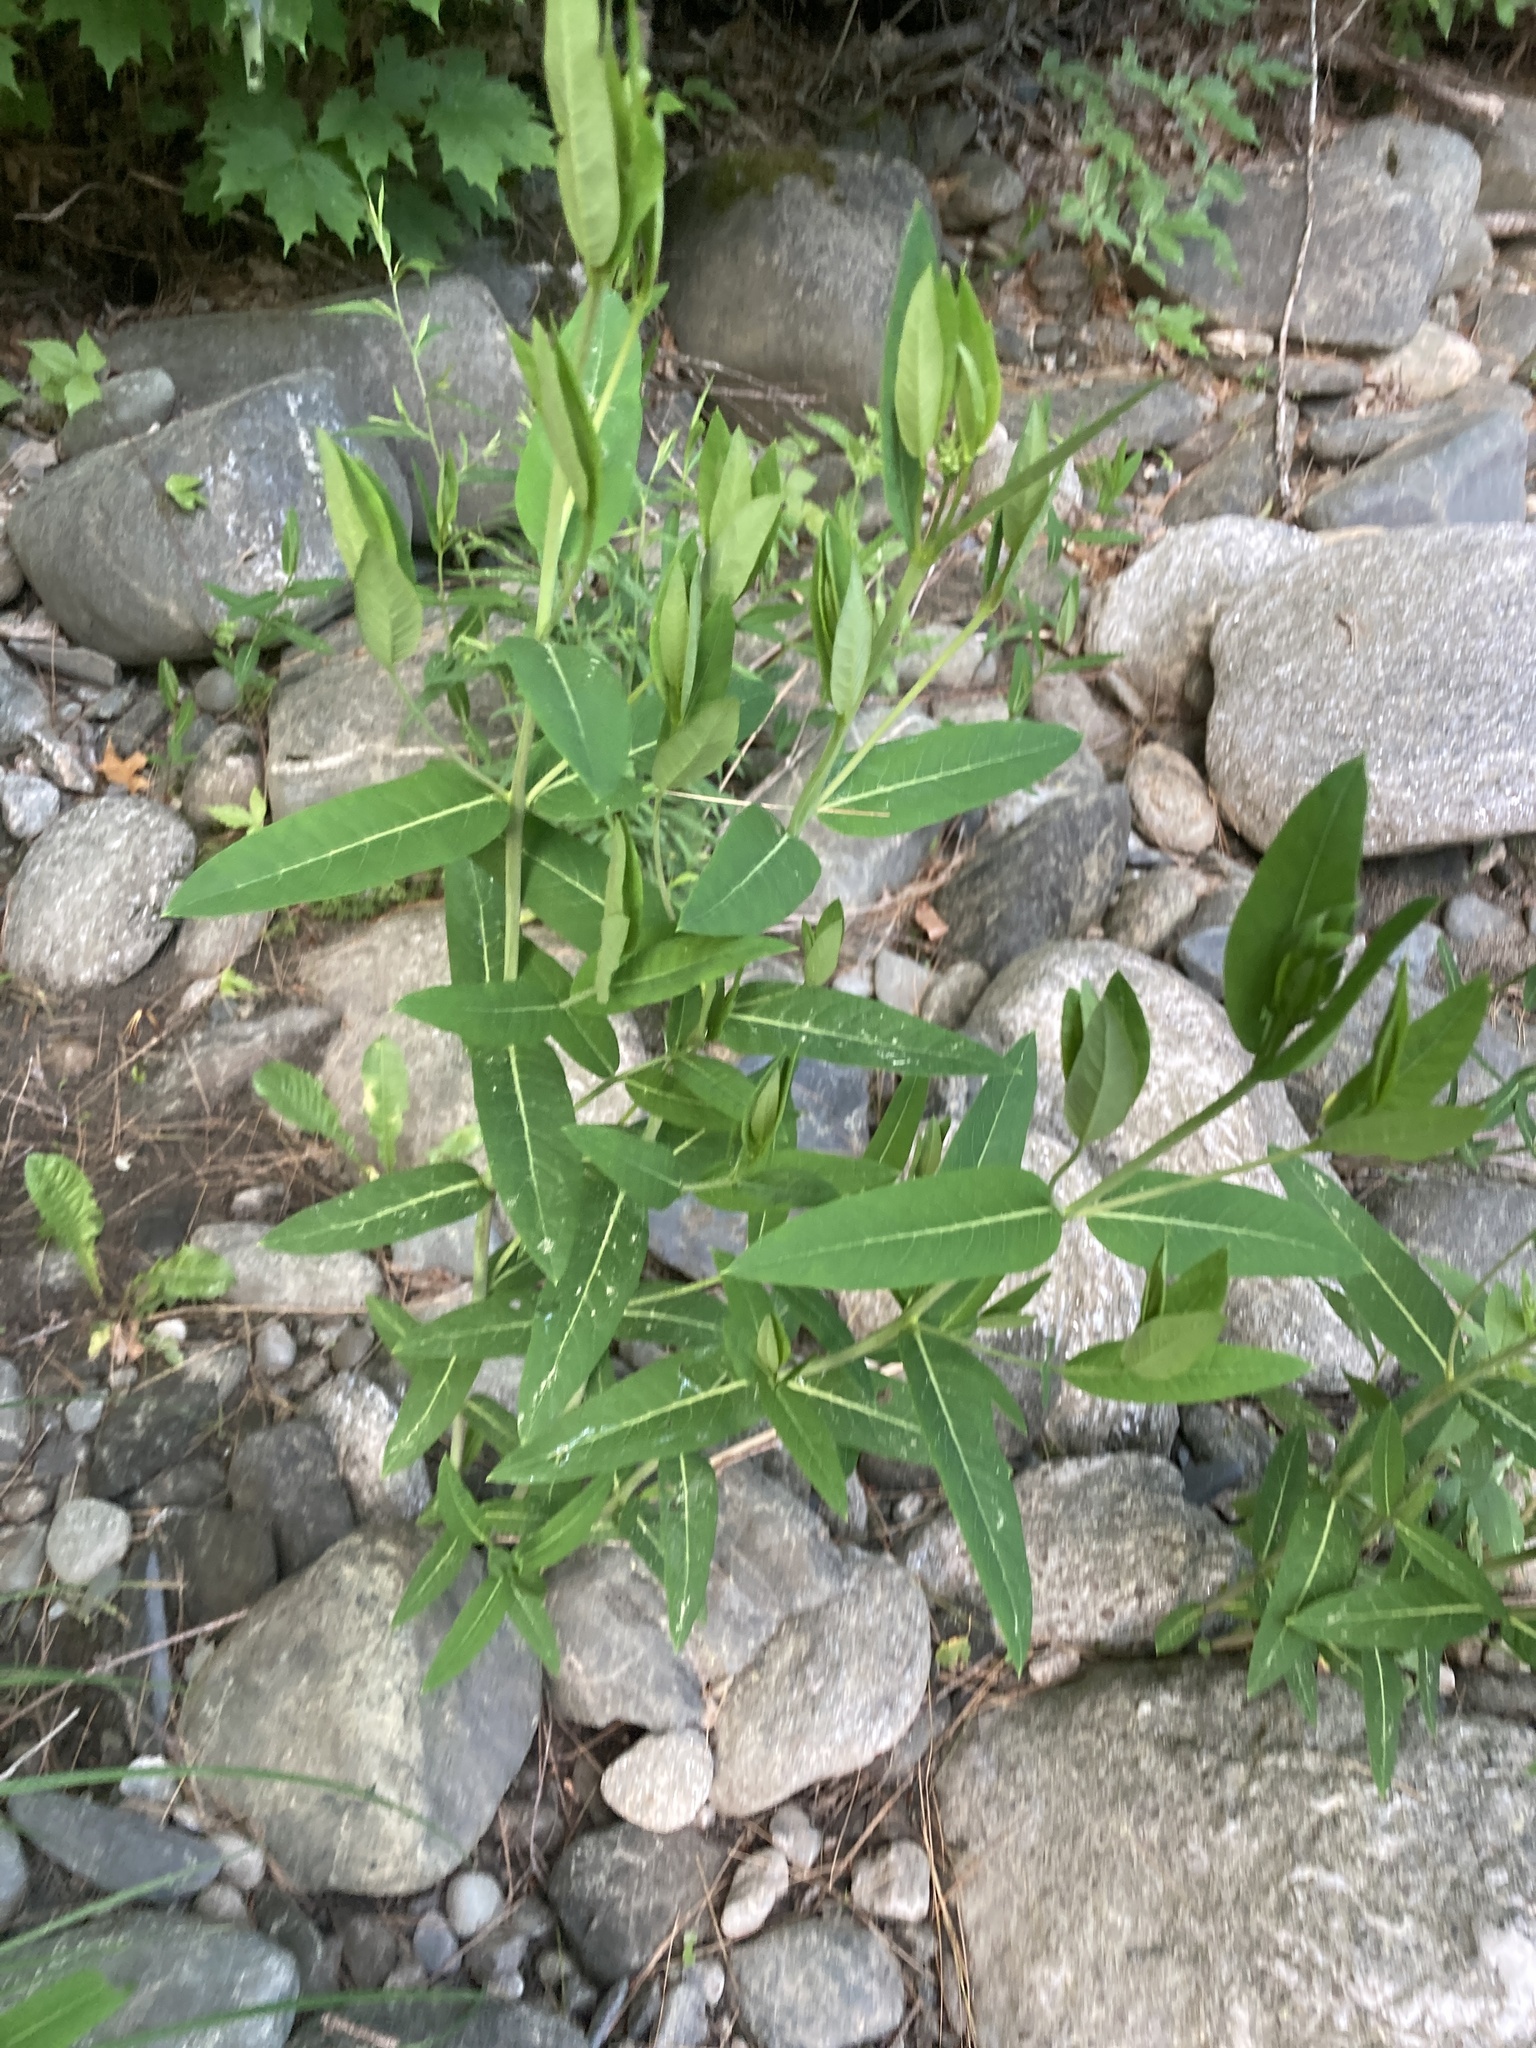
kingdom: Plantae
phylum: Tracheophyta
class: Magnoliopsida
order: Gentianales
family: Apocynaceae
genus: Apocynum
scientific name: Apocynum cannabinum
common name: Hemp dogbane
